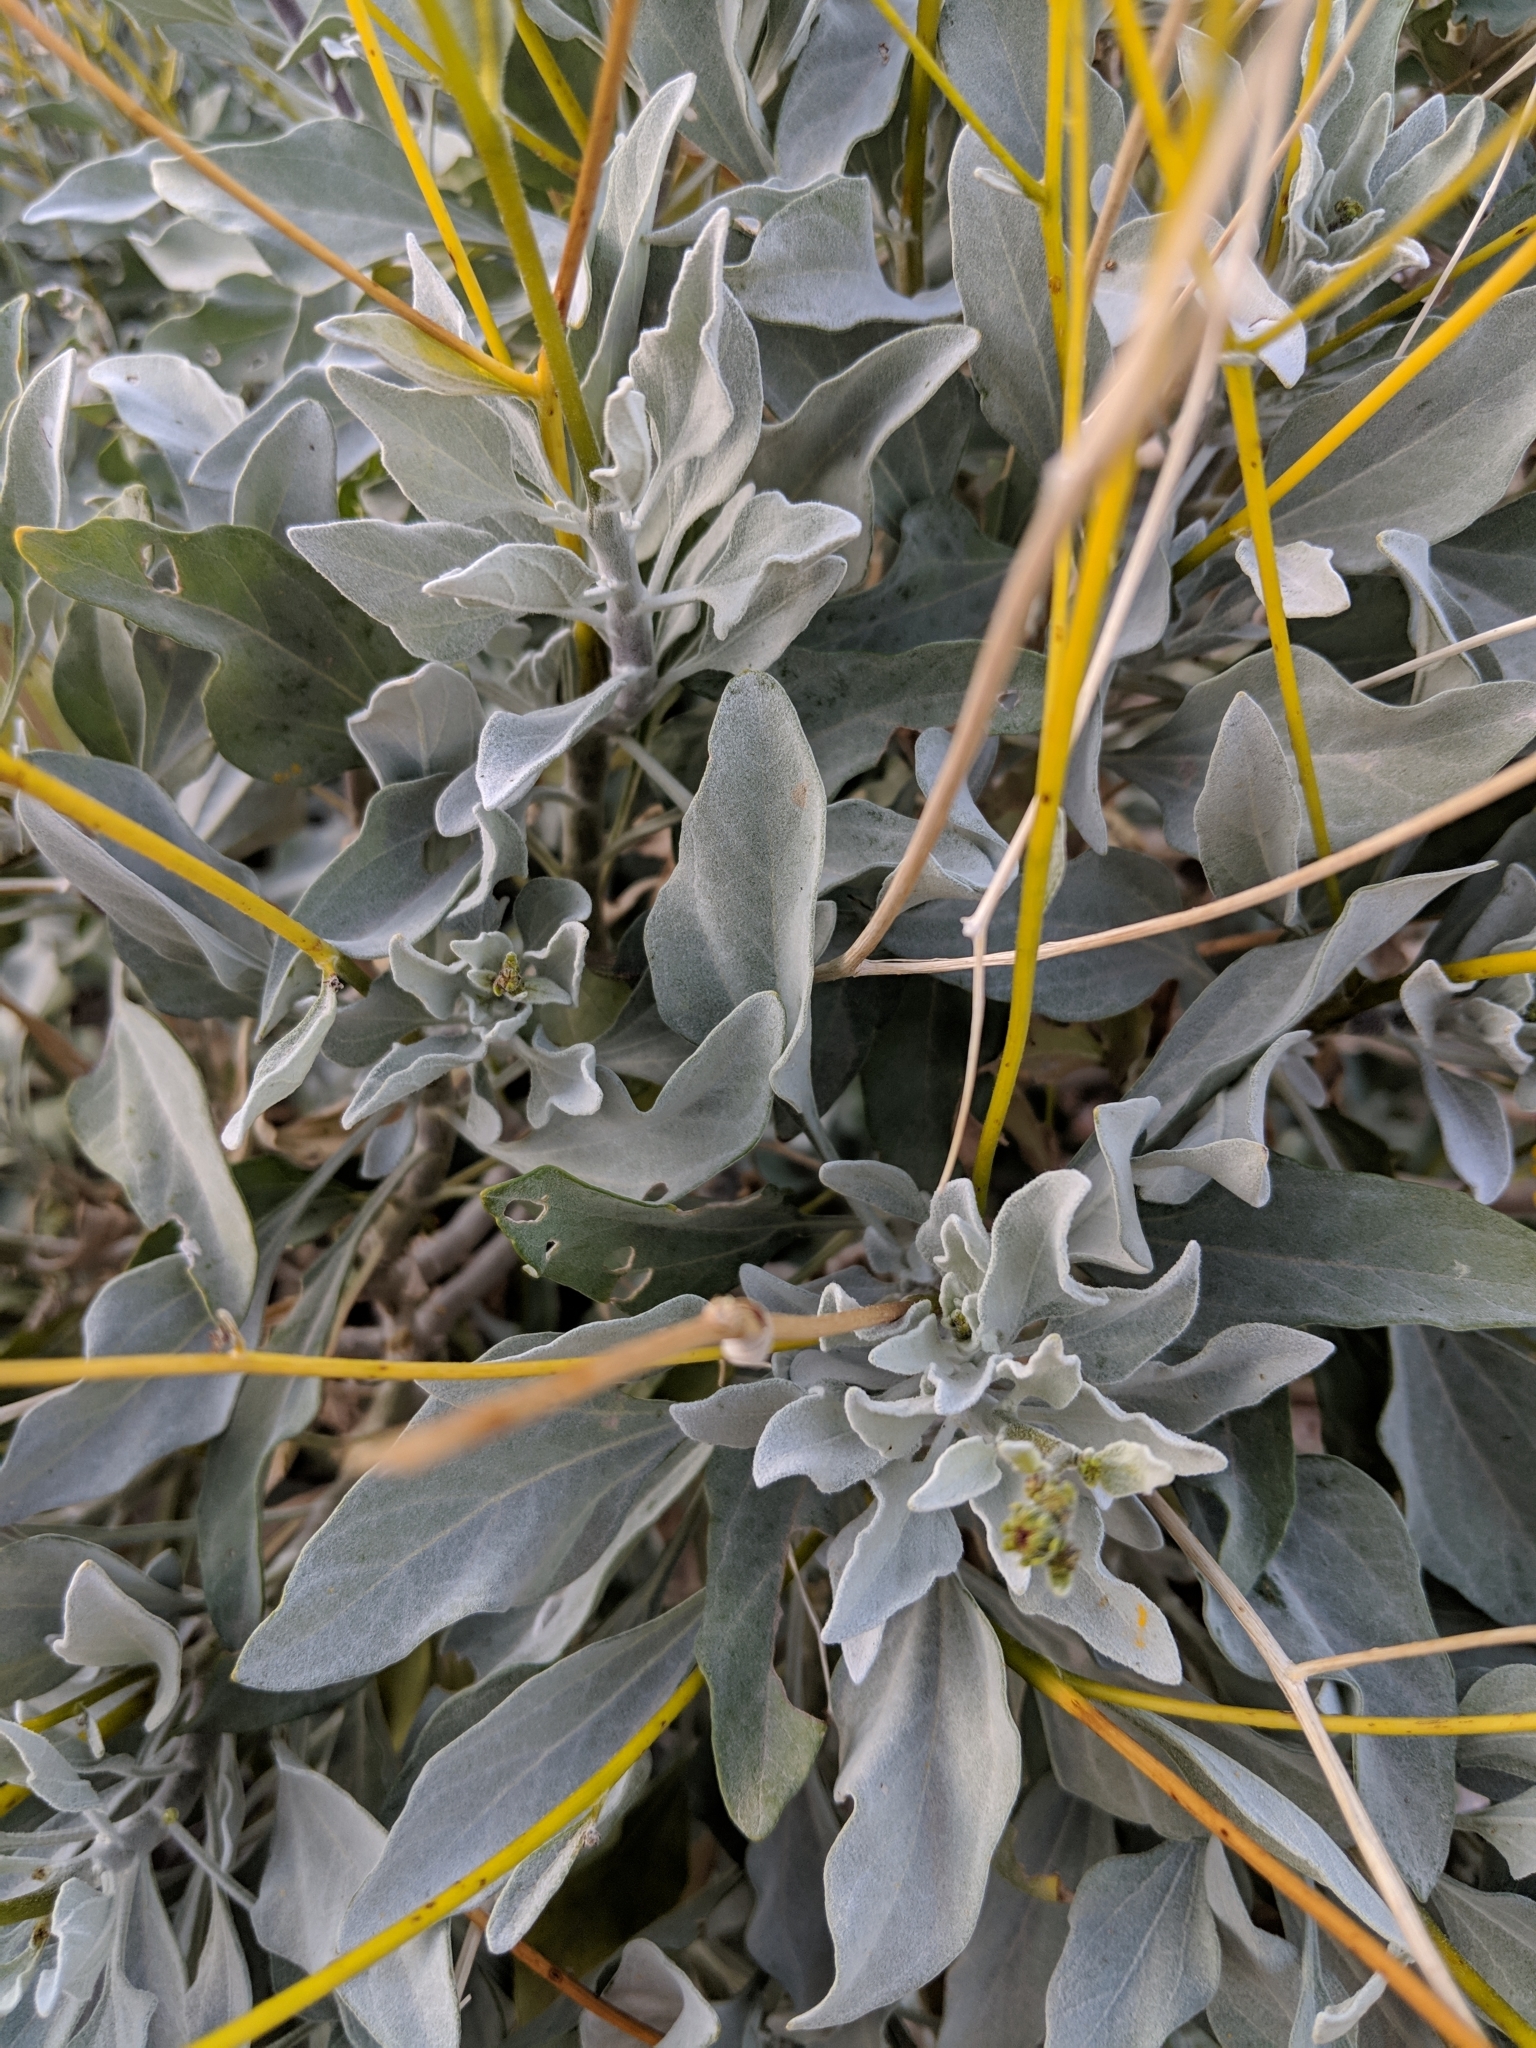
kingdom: Plantae
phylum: Tracheophyta
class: Magnoliopsida
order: Asterales
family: Asteraceae
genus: Encelia
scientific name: Encelia farinosa
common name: Brittlebush
